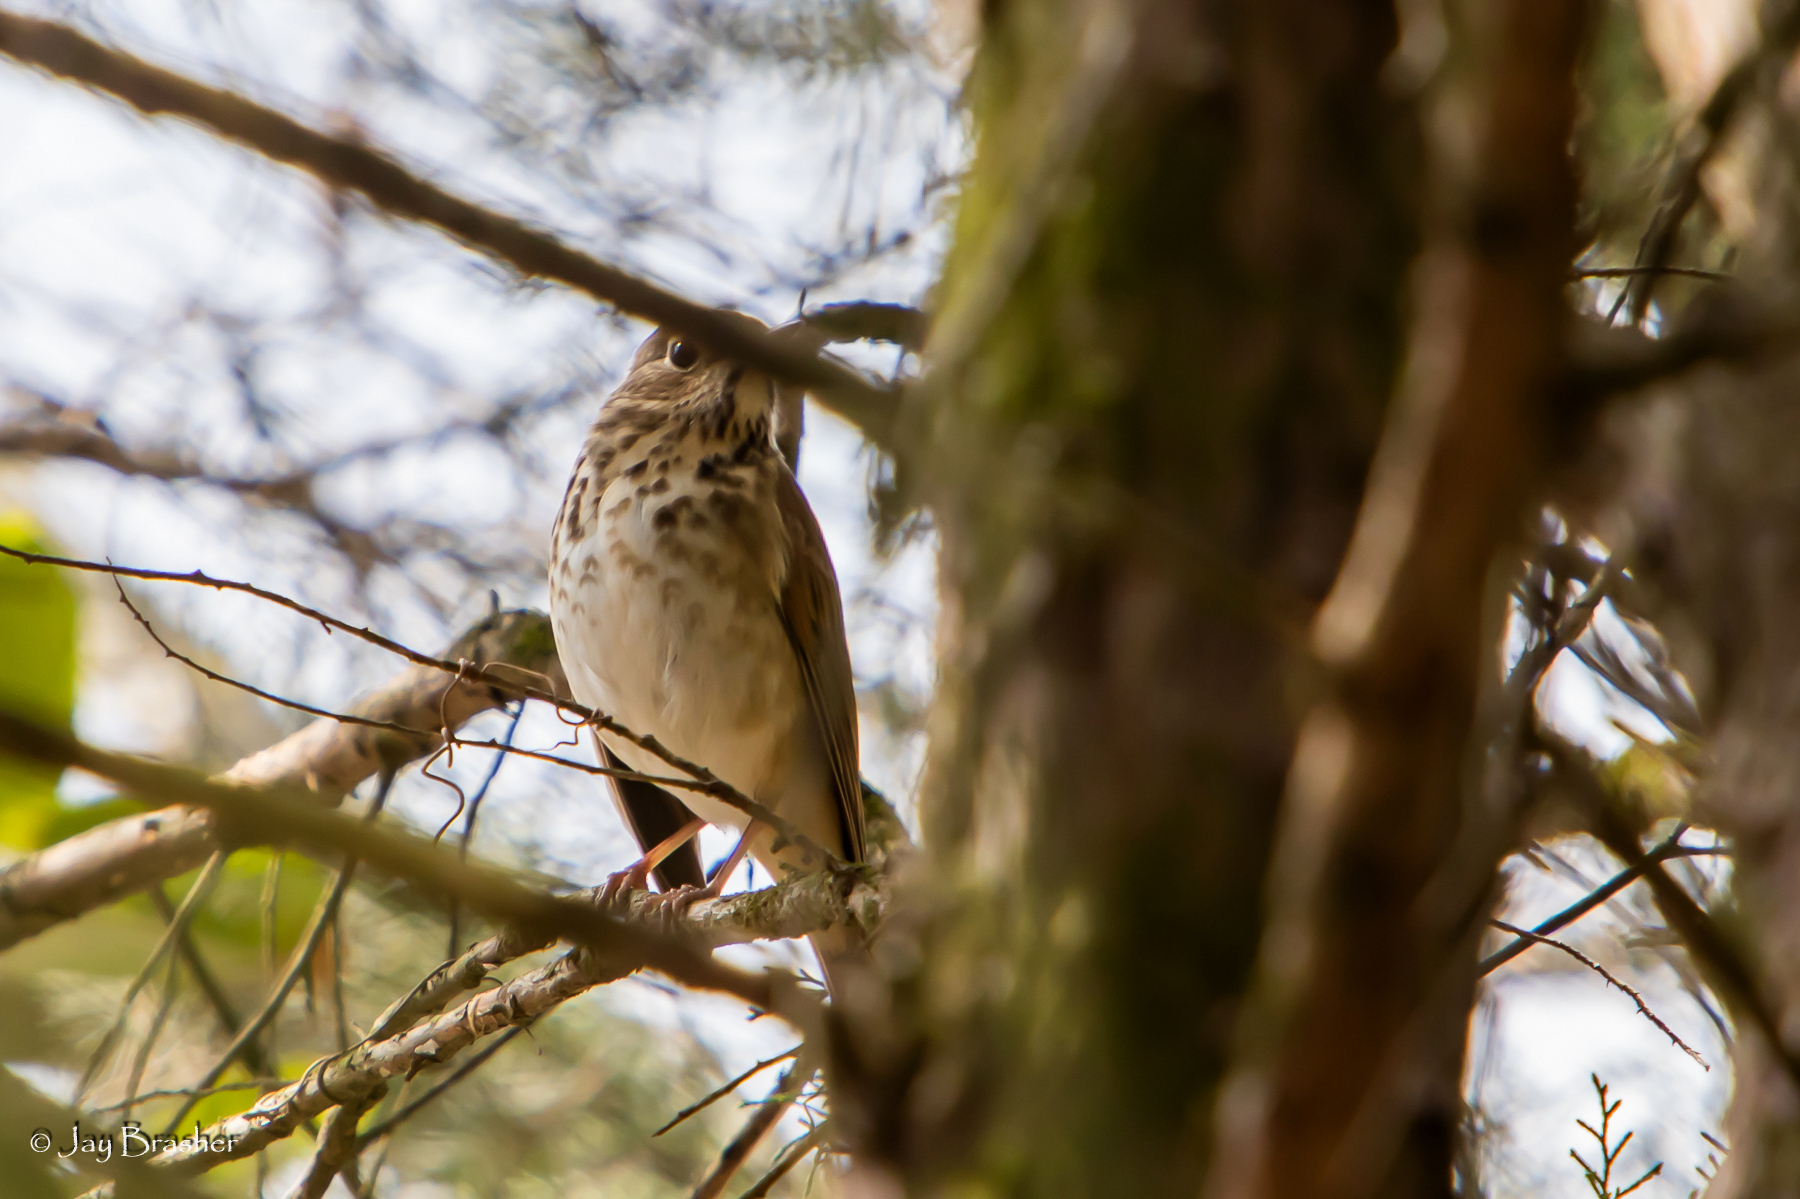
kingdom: Animalia
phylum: Chordata
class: Aves
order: Passeriformes
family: Turdidae
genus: Catharus
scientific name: Catharus guttatus
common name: Hermit thrush
